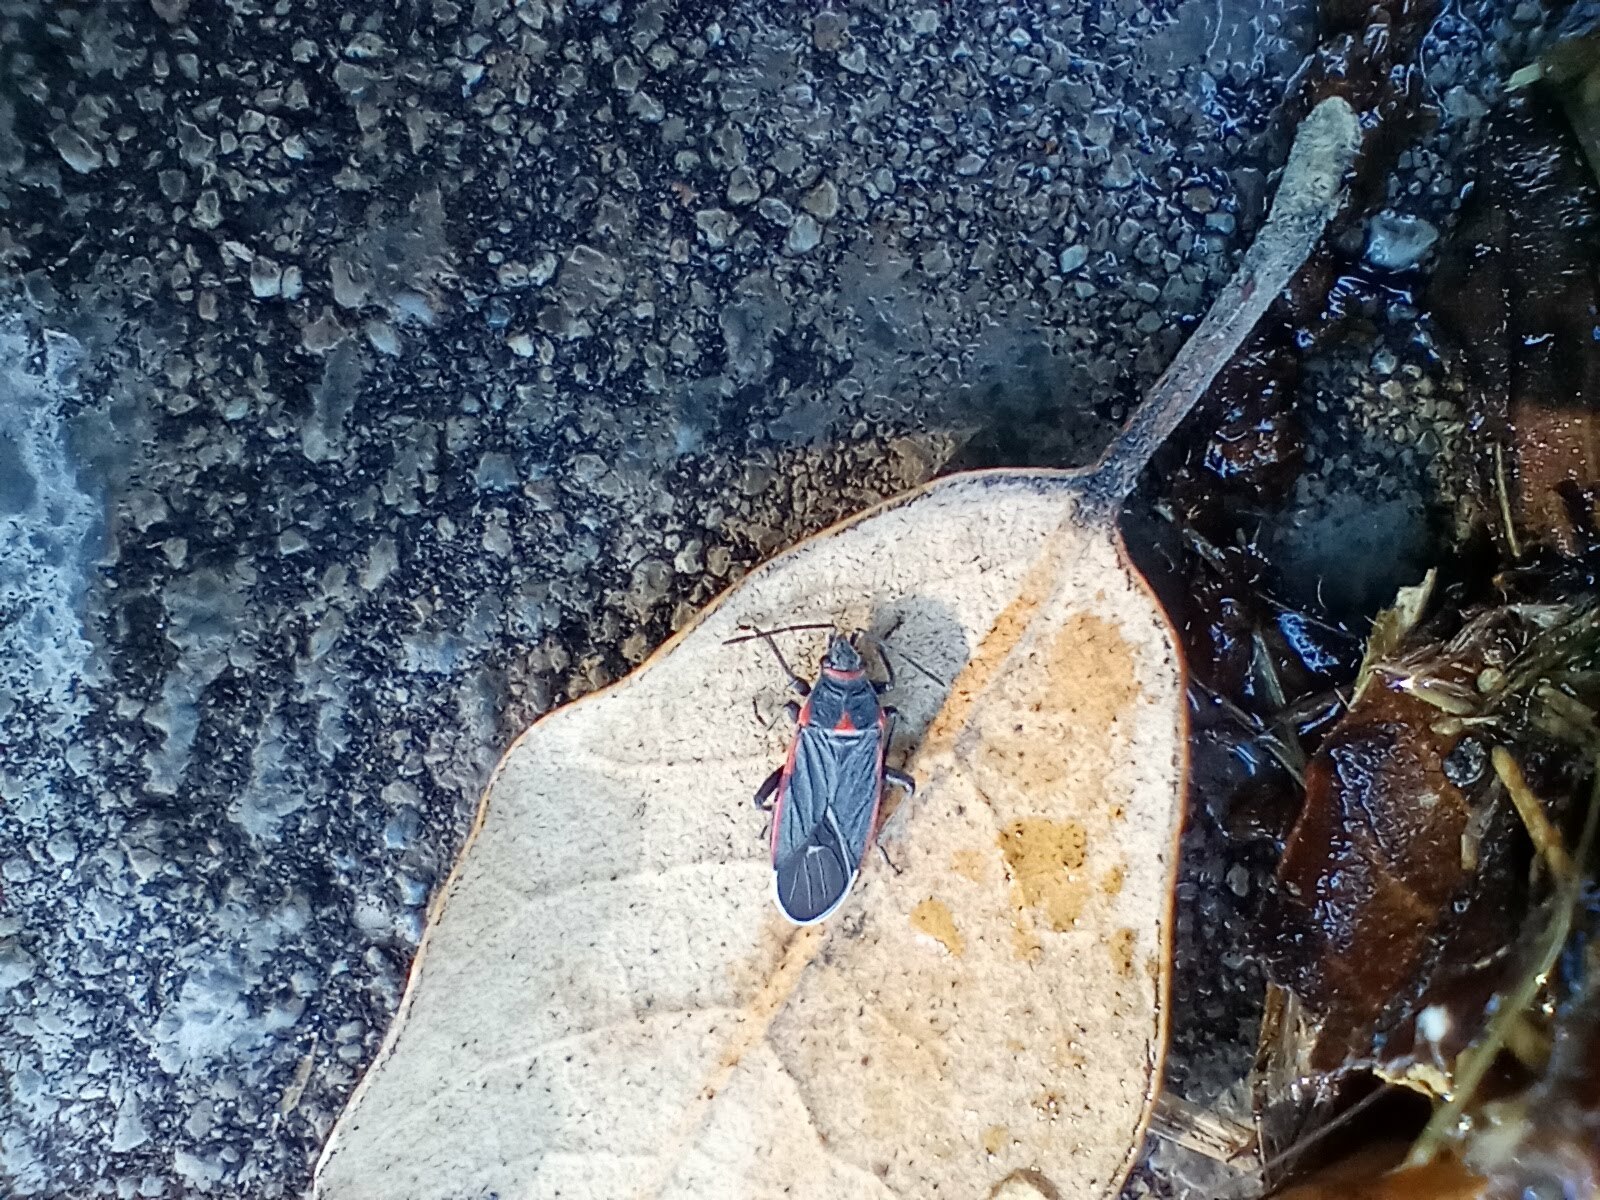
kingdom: Animalia
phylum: Arthropoda
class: Insecta
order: Hemiptera
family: Lygaeidae
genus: Melacoryphus
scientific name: Melacoryphus lateralis
